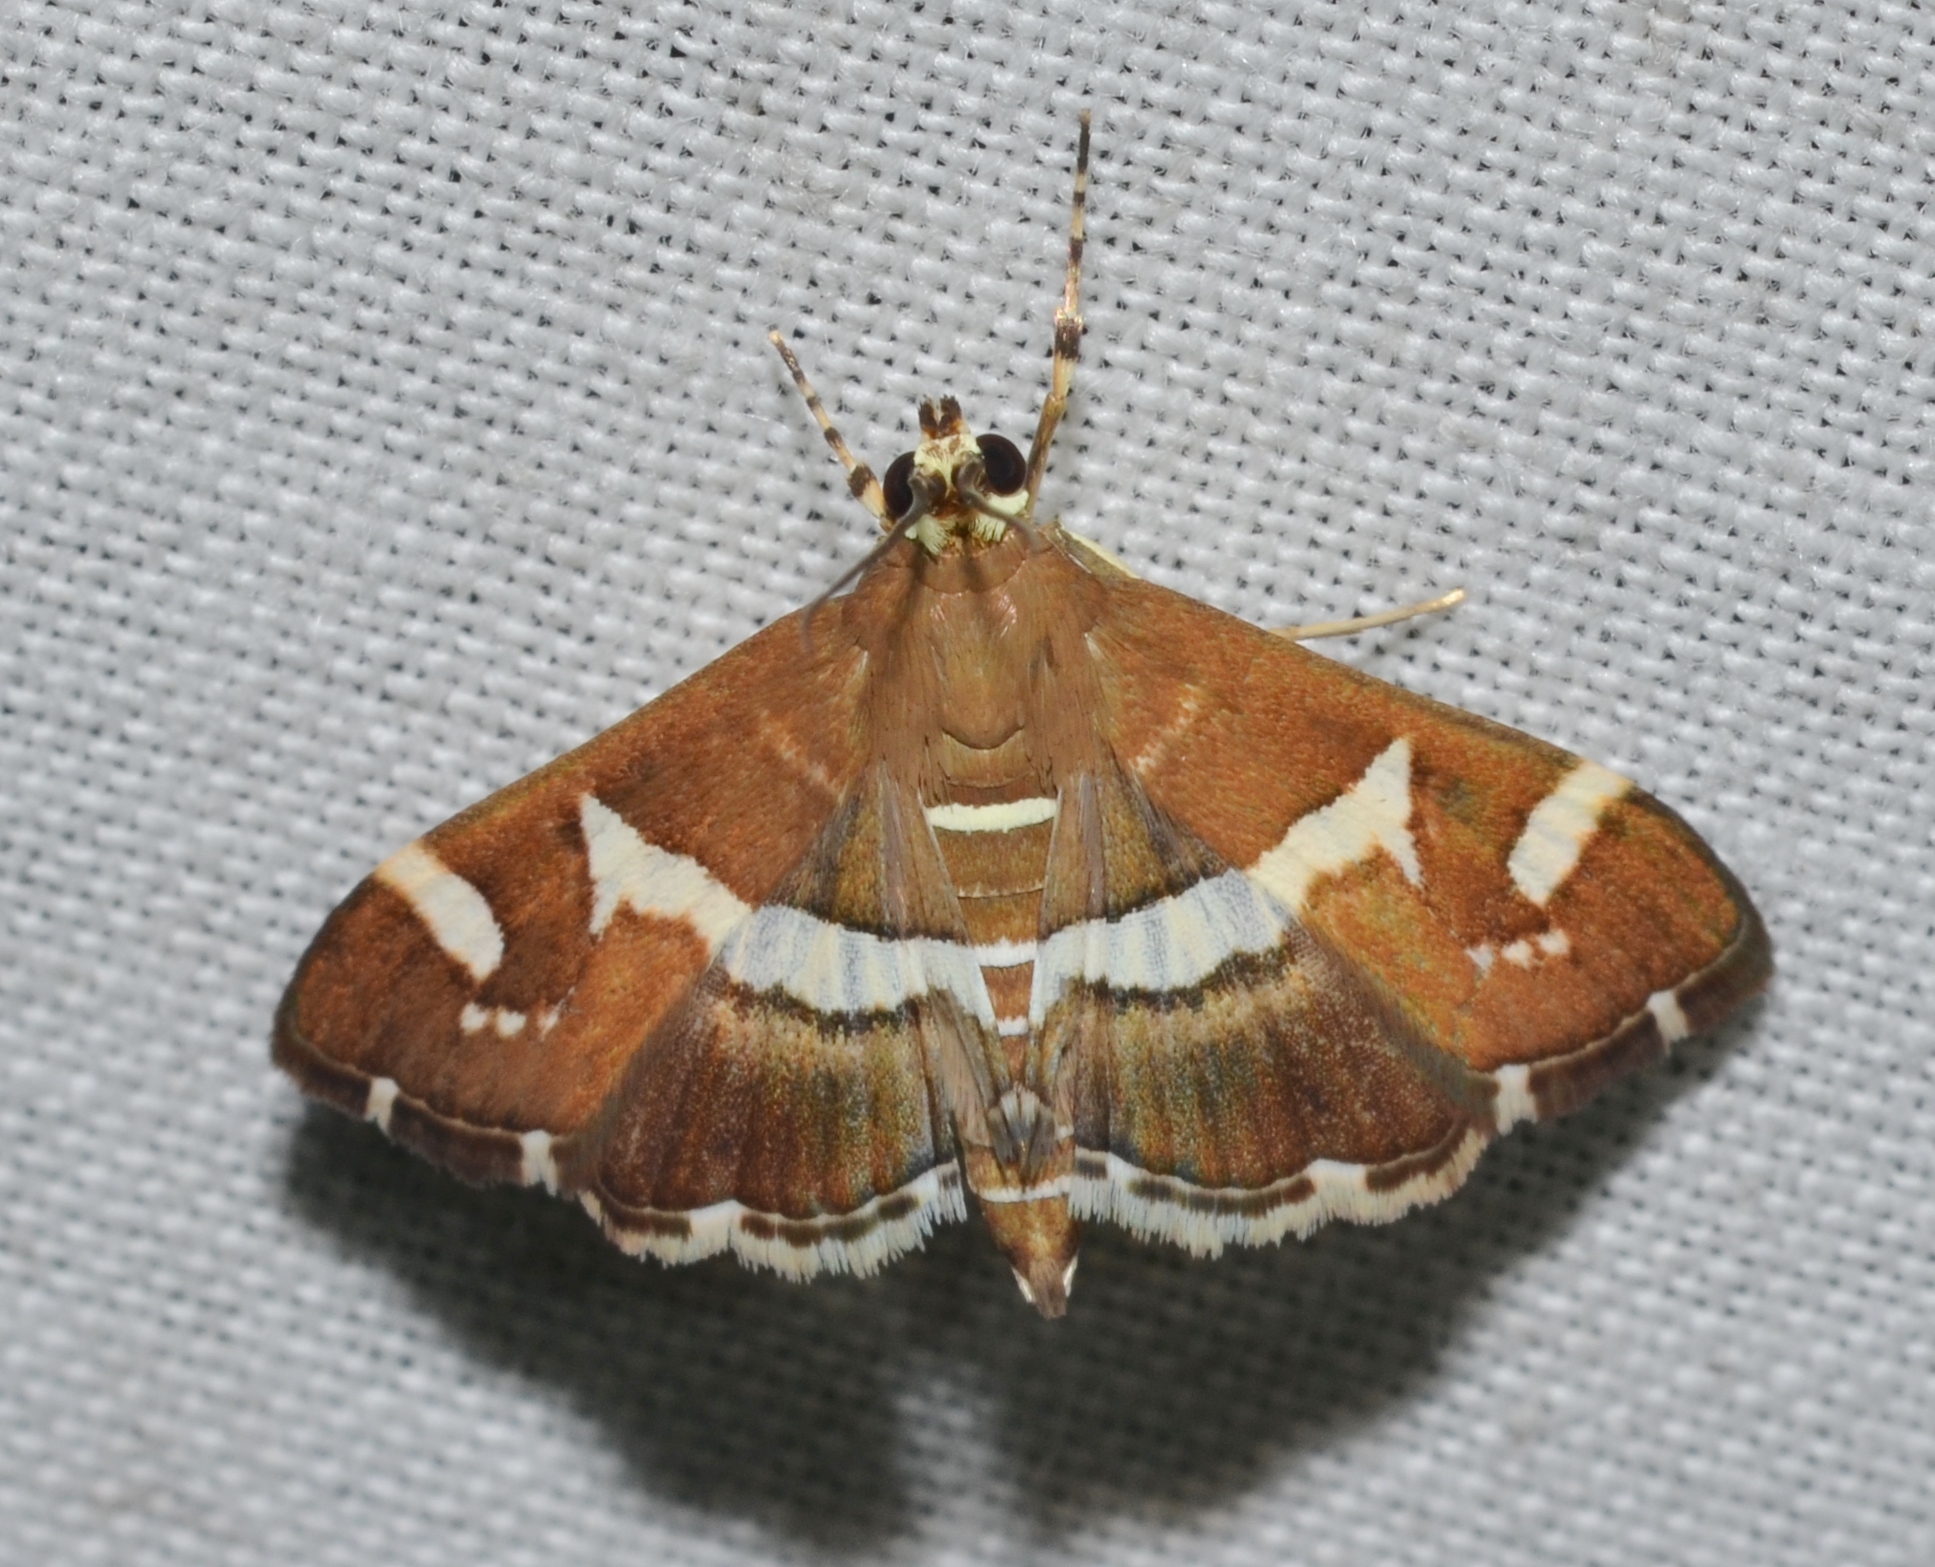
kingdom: Animalia
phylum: Arthropoda
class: Insecta
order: Lepidoptera
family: Crambidae
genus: Spoladea
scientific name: Spoladea recurvalis
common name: Beet webworm moth
